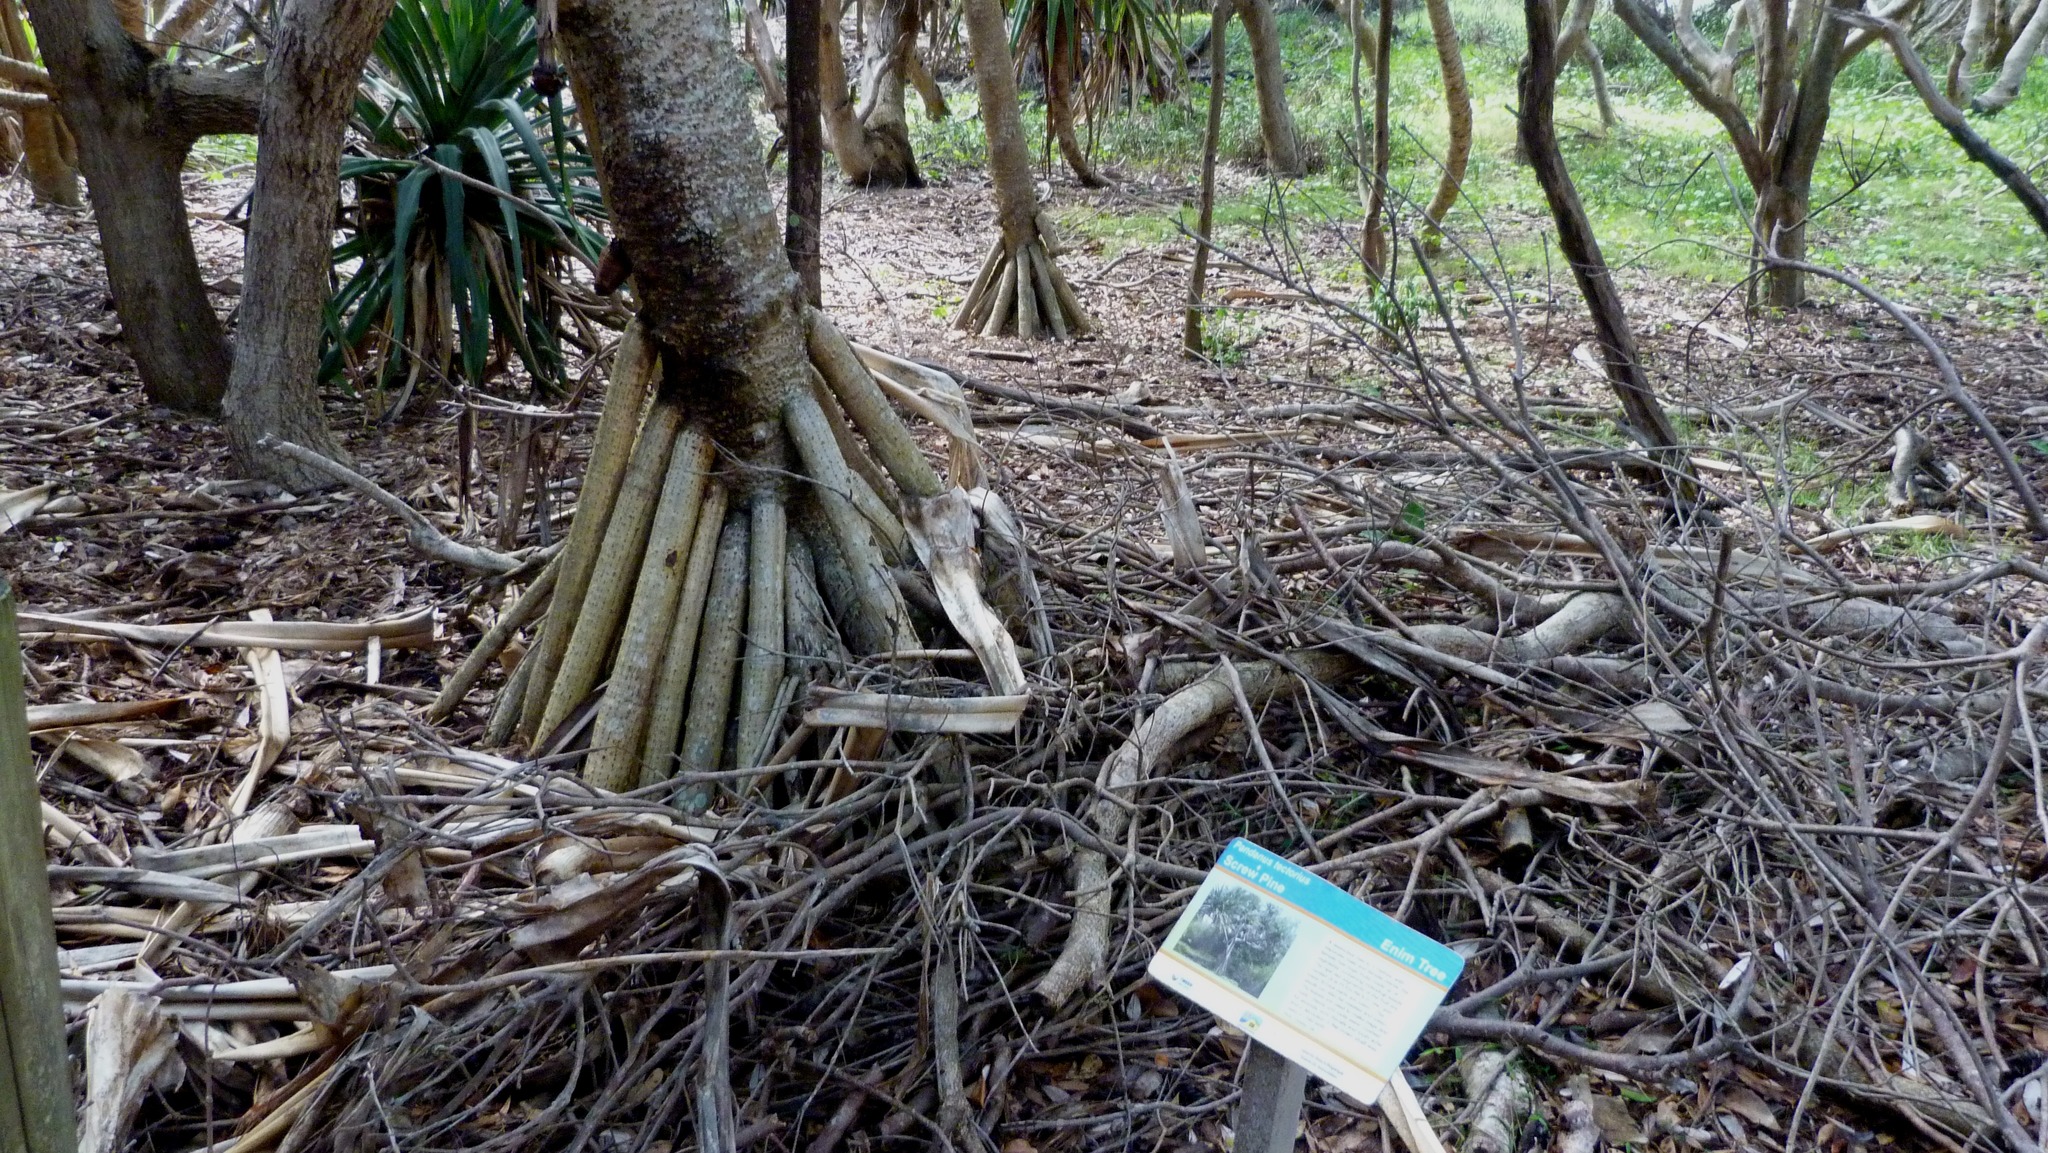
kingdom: Plantae
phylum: Tracheophyta
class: Liliopsida
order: Pandanales
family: Pandanaceae
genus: Pandanus
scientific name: Pandanus tectorius
